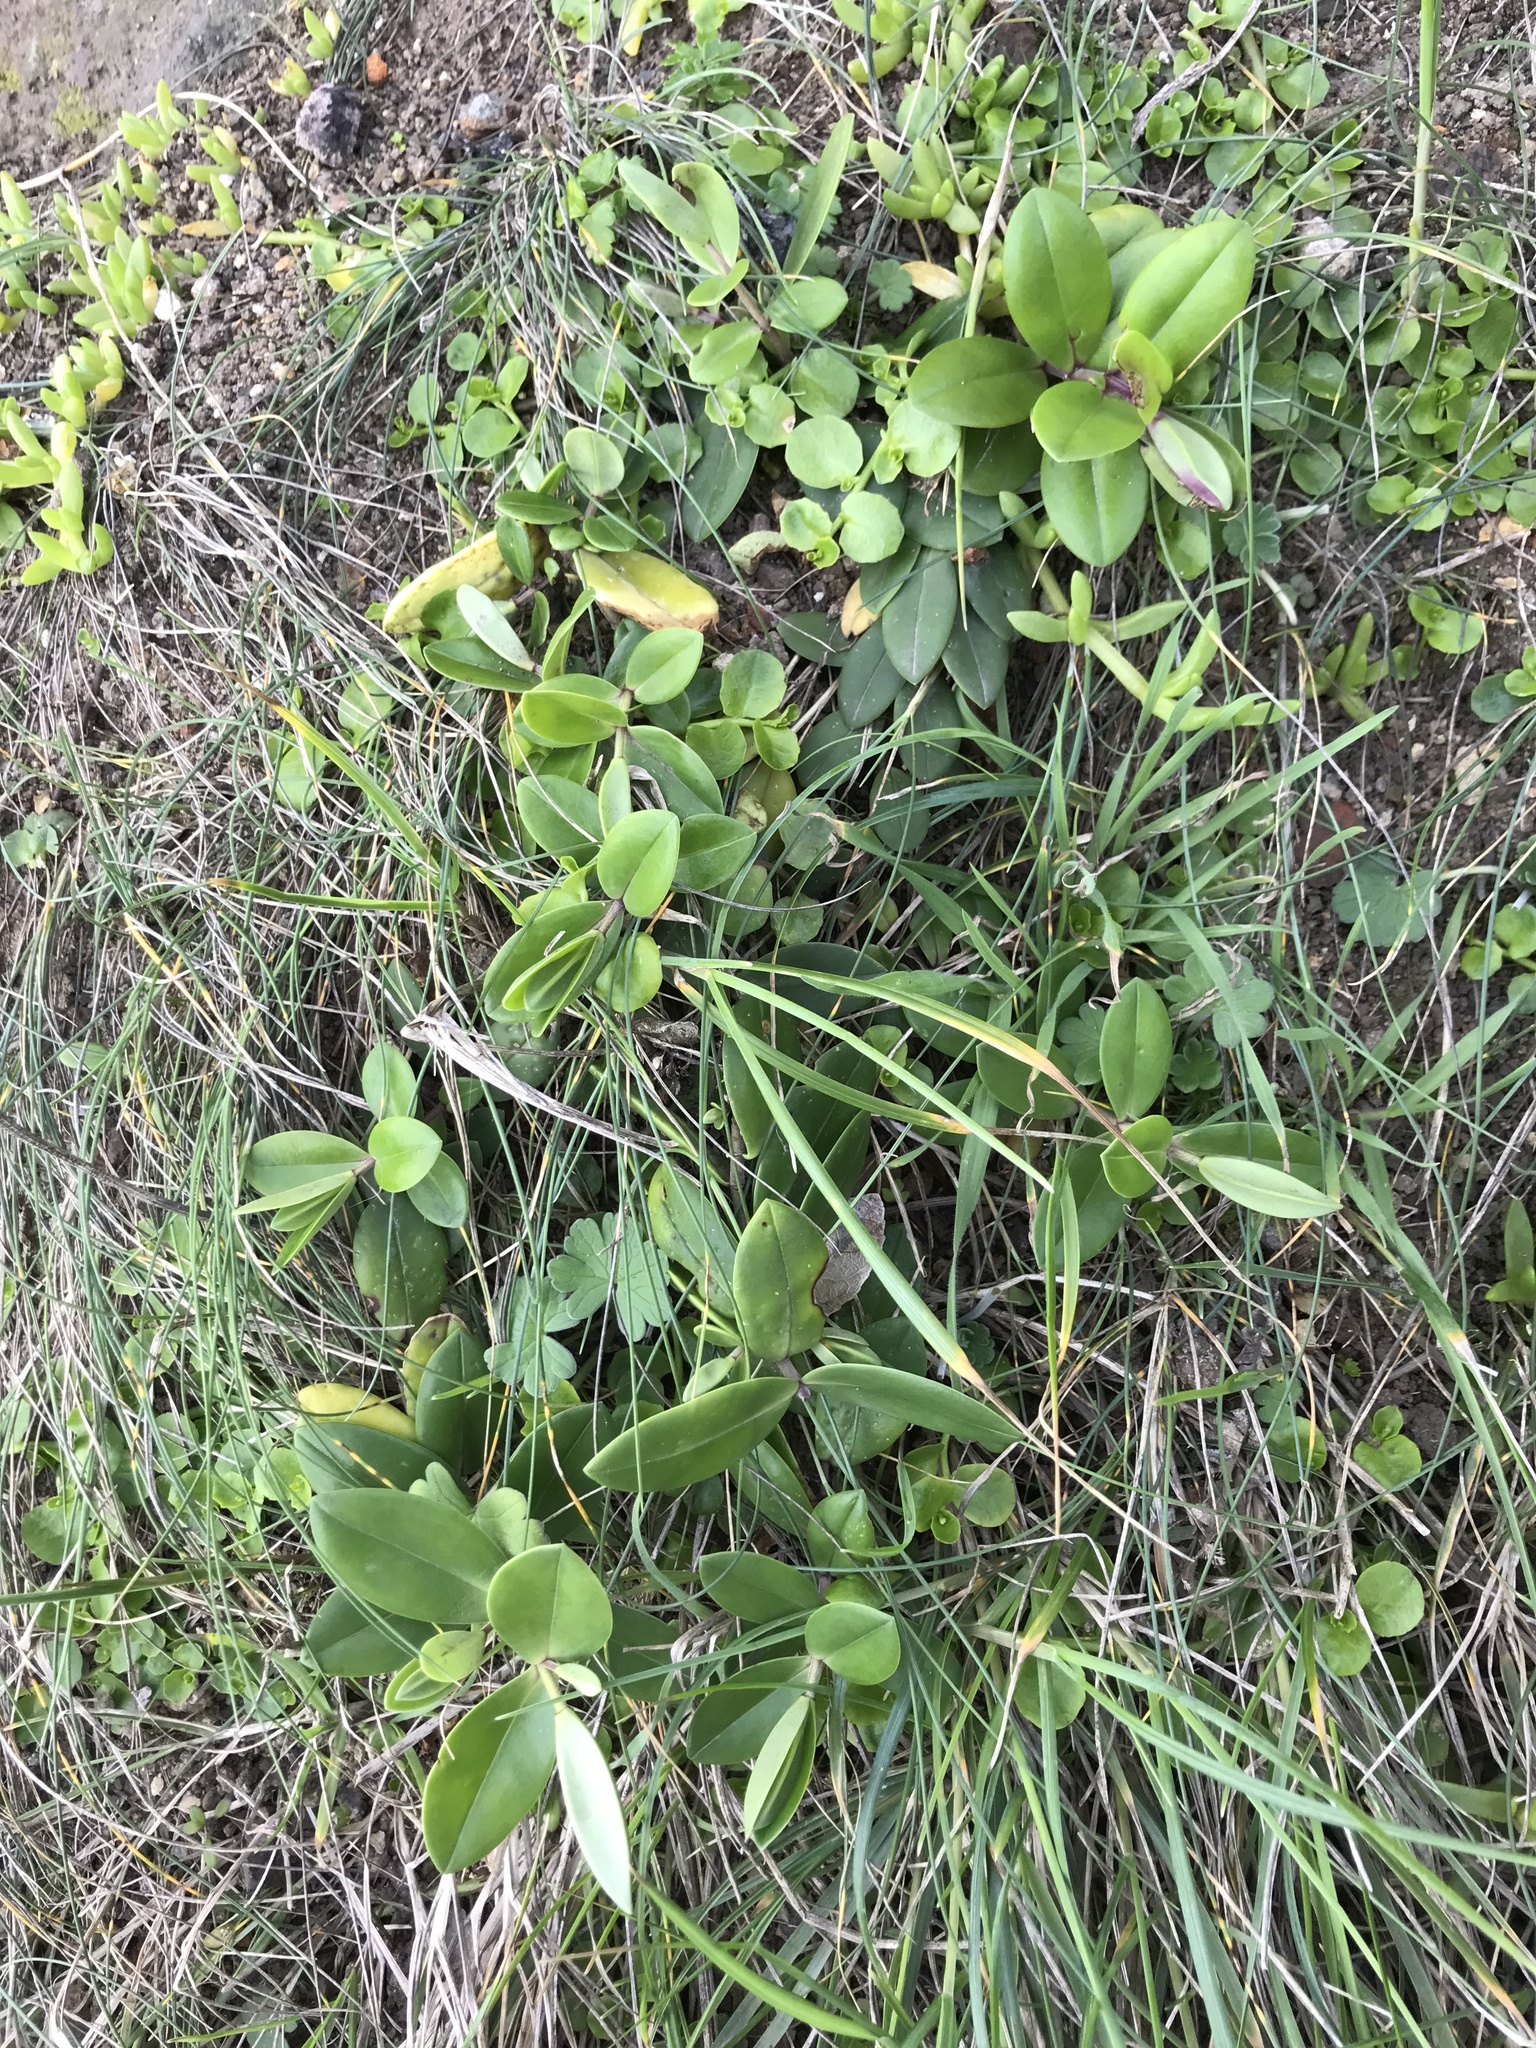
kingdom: Plantae
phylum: Tracheophyta
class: Magnoliopsida
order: Lamiales
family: Plantaginaceae
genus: Veronica
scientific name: Veronica elliptica
